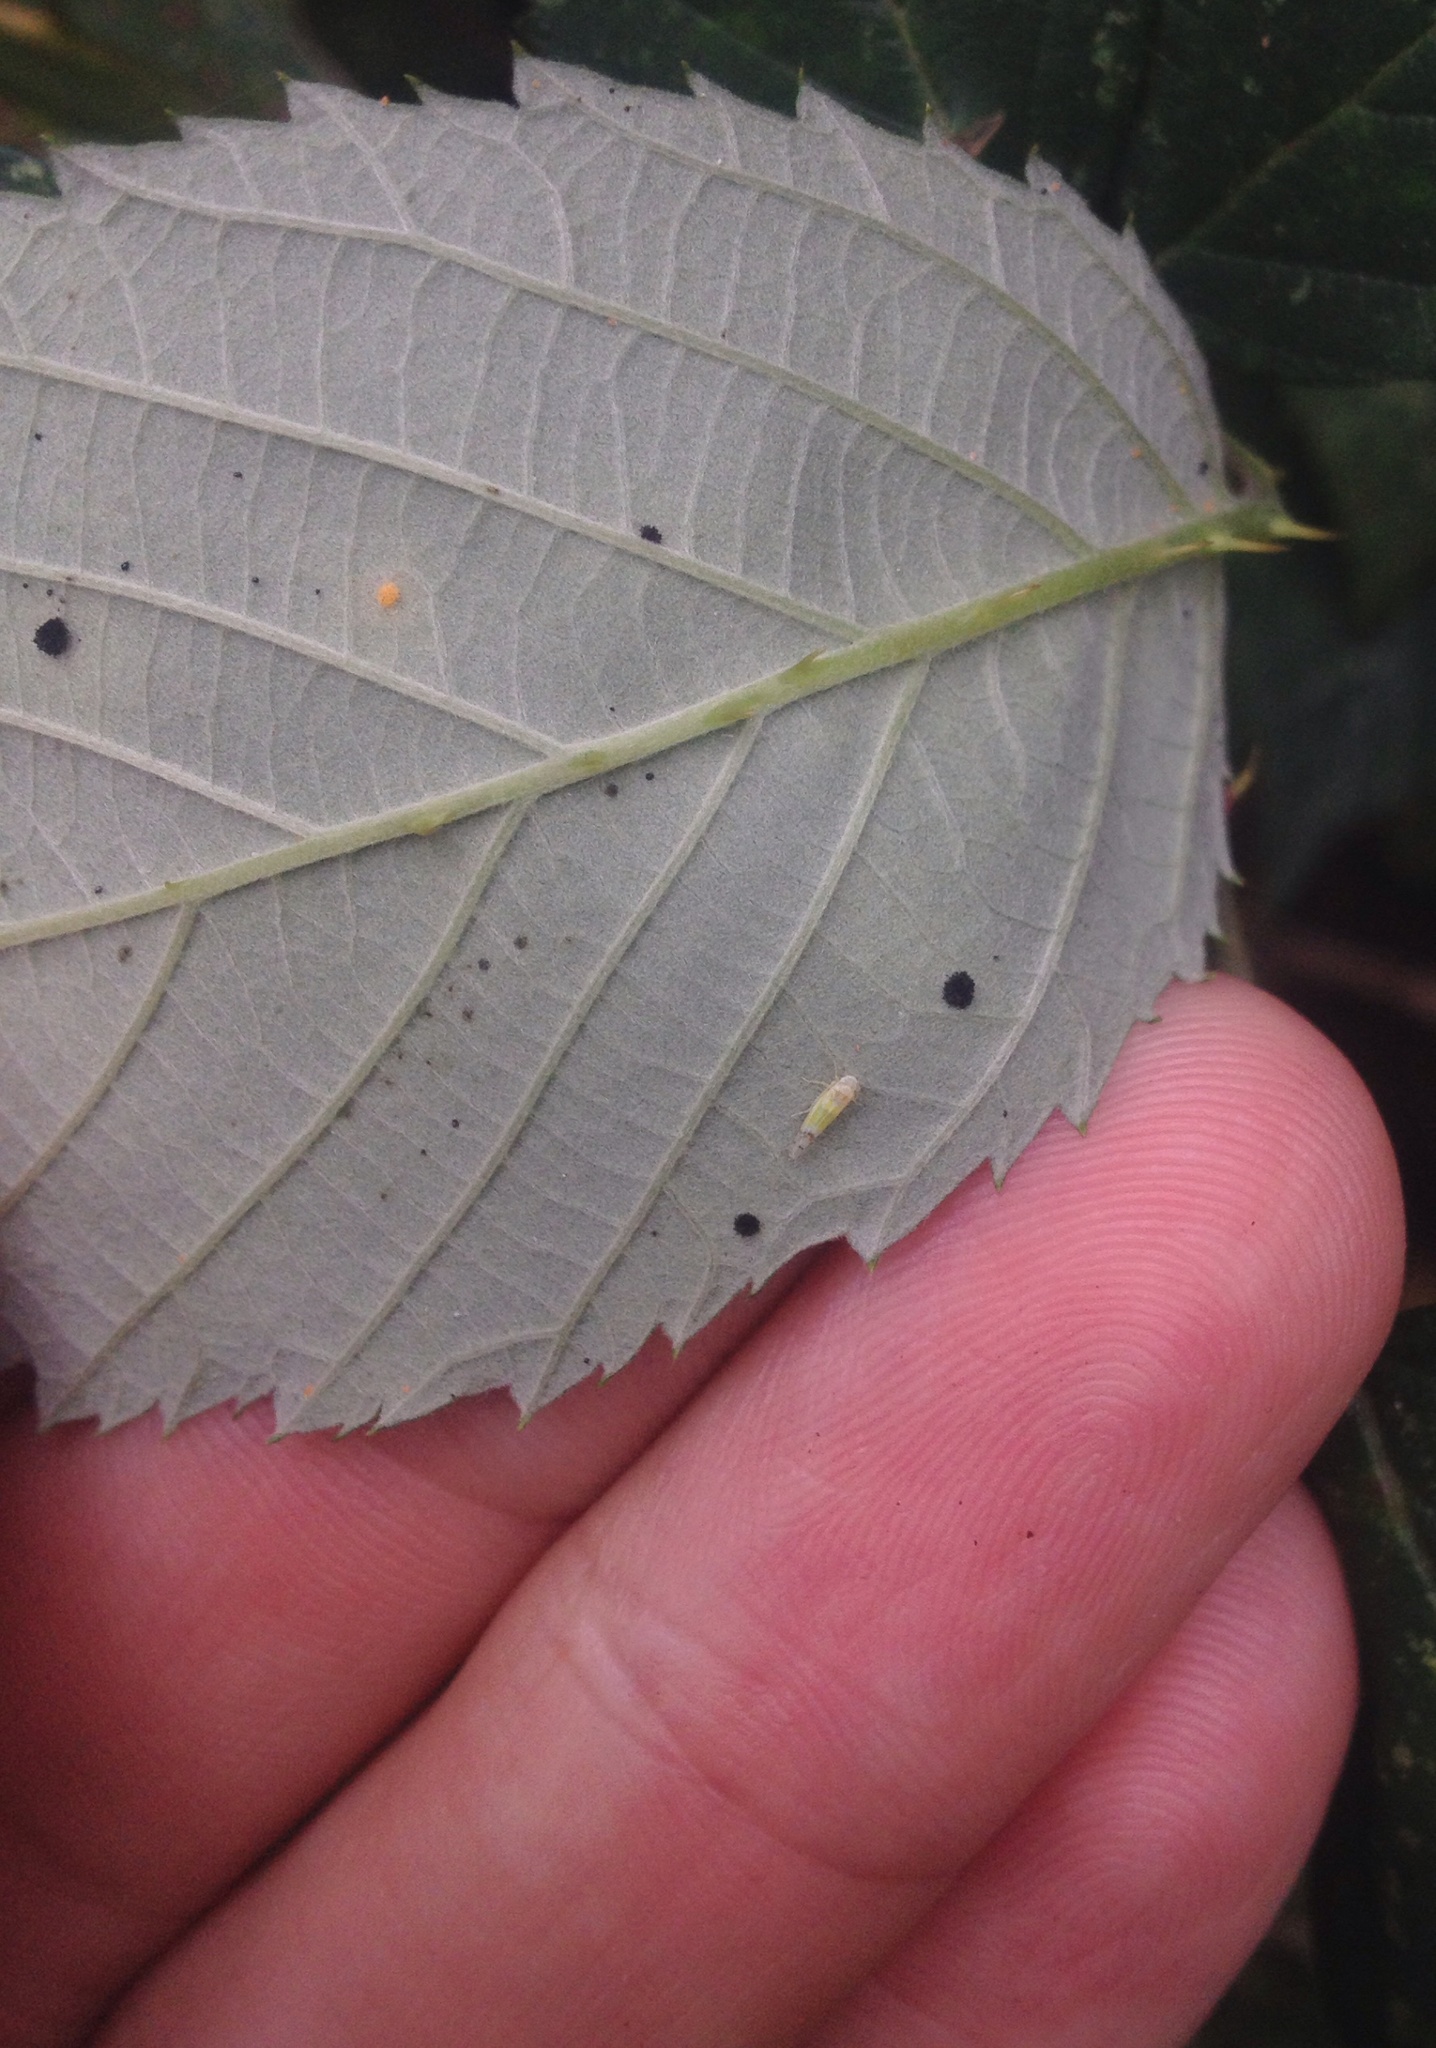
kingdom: Animalia
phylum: Arthropoda
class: Insecta
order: Hemiptera
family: Cicadellidae
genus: Ribautiana
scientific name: Ribautiana tenerrima
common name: Bramble leafhopper
